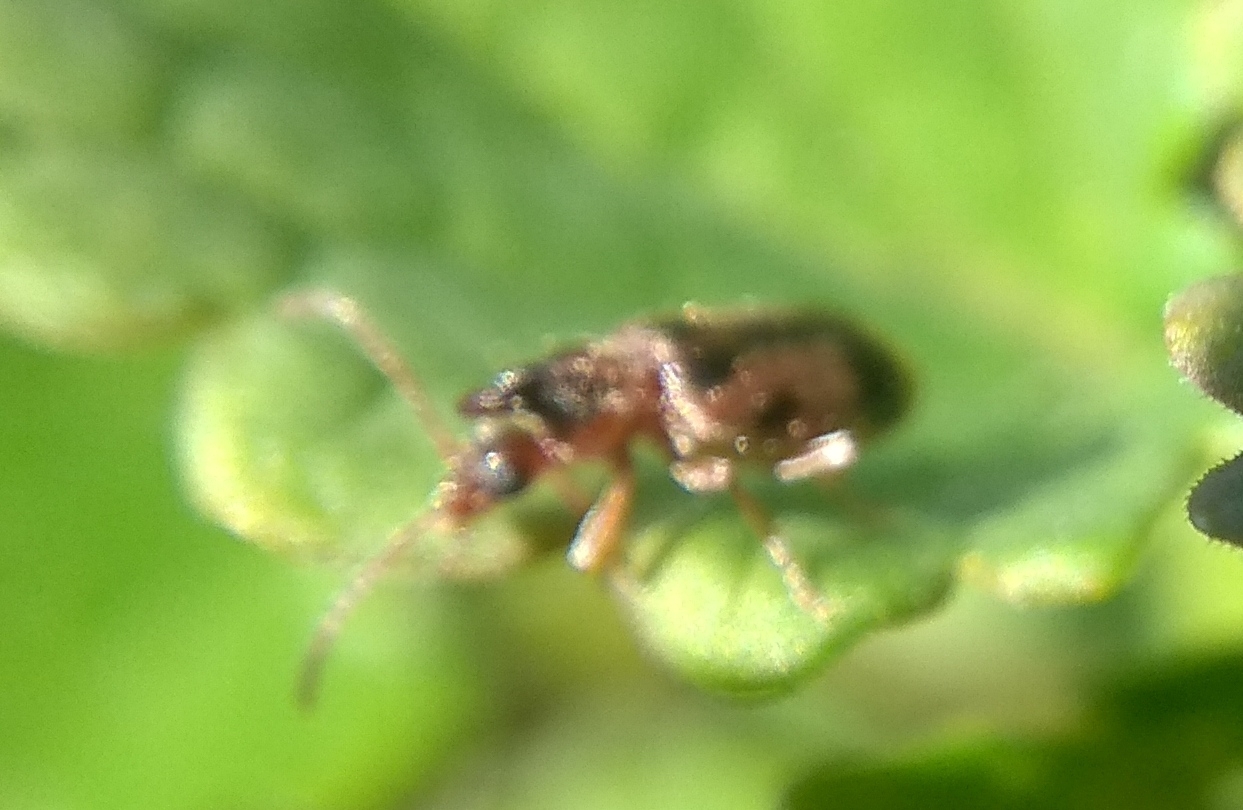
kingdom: Animalia
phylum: Arthropoda
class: Insecta
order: Coleoptera
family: Anthicidae
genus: Notoxus
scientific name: Notoxus monoceros
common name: Monoceros beetle
